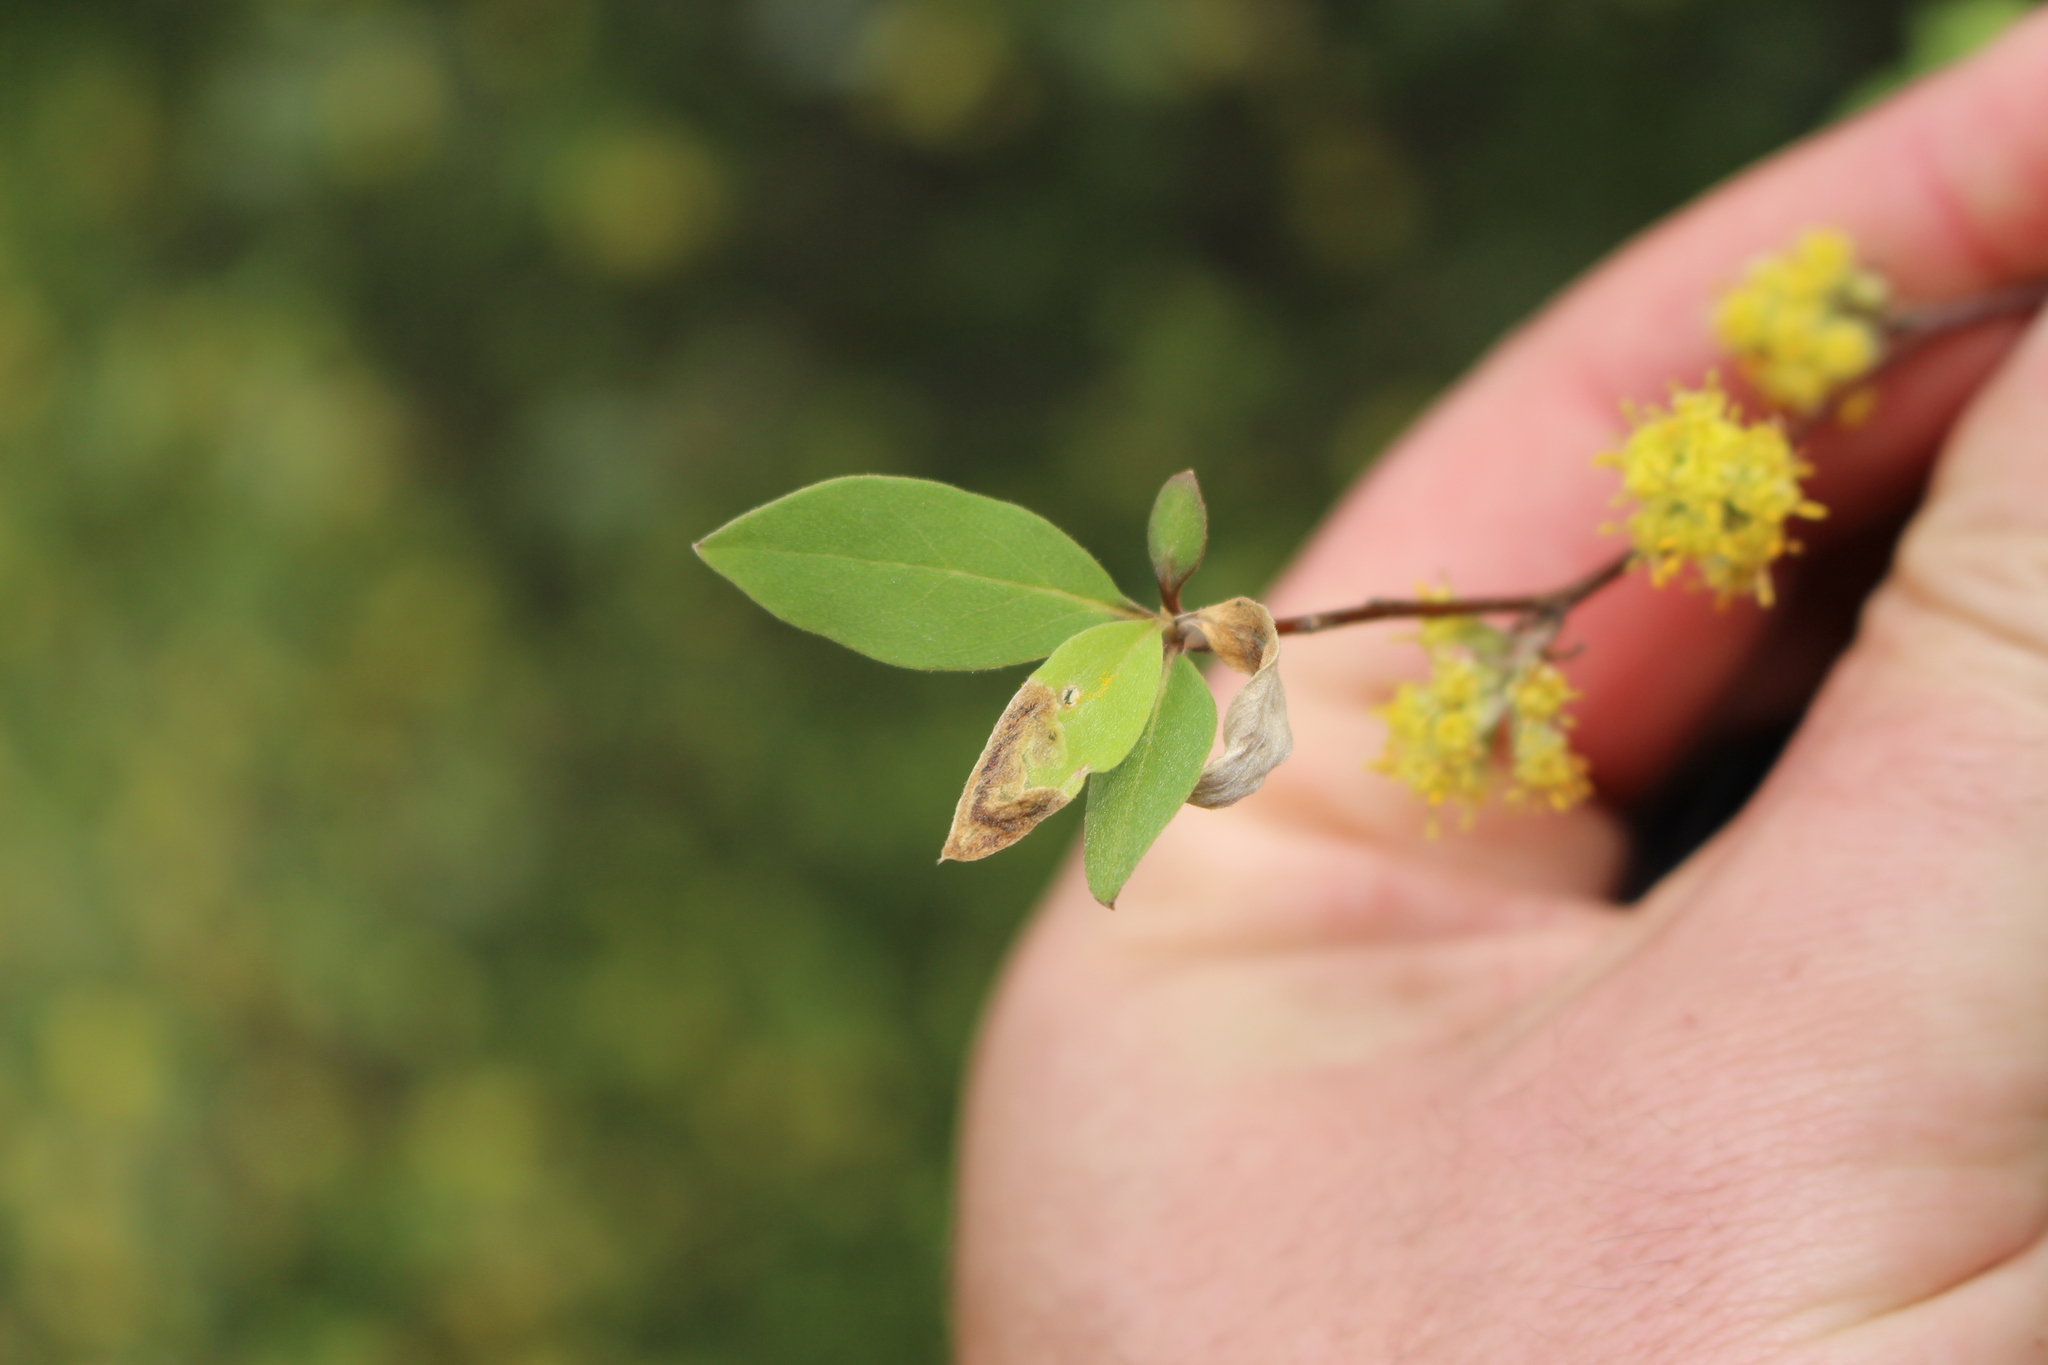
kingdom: Plantae
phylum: Tracheophyta
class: Magnoliopsida
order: Asterales
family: Asteraceae
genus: Olearia
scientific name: Olearia fragrantissima
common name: Fragrant tree daisy
